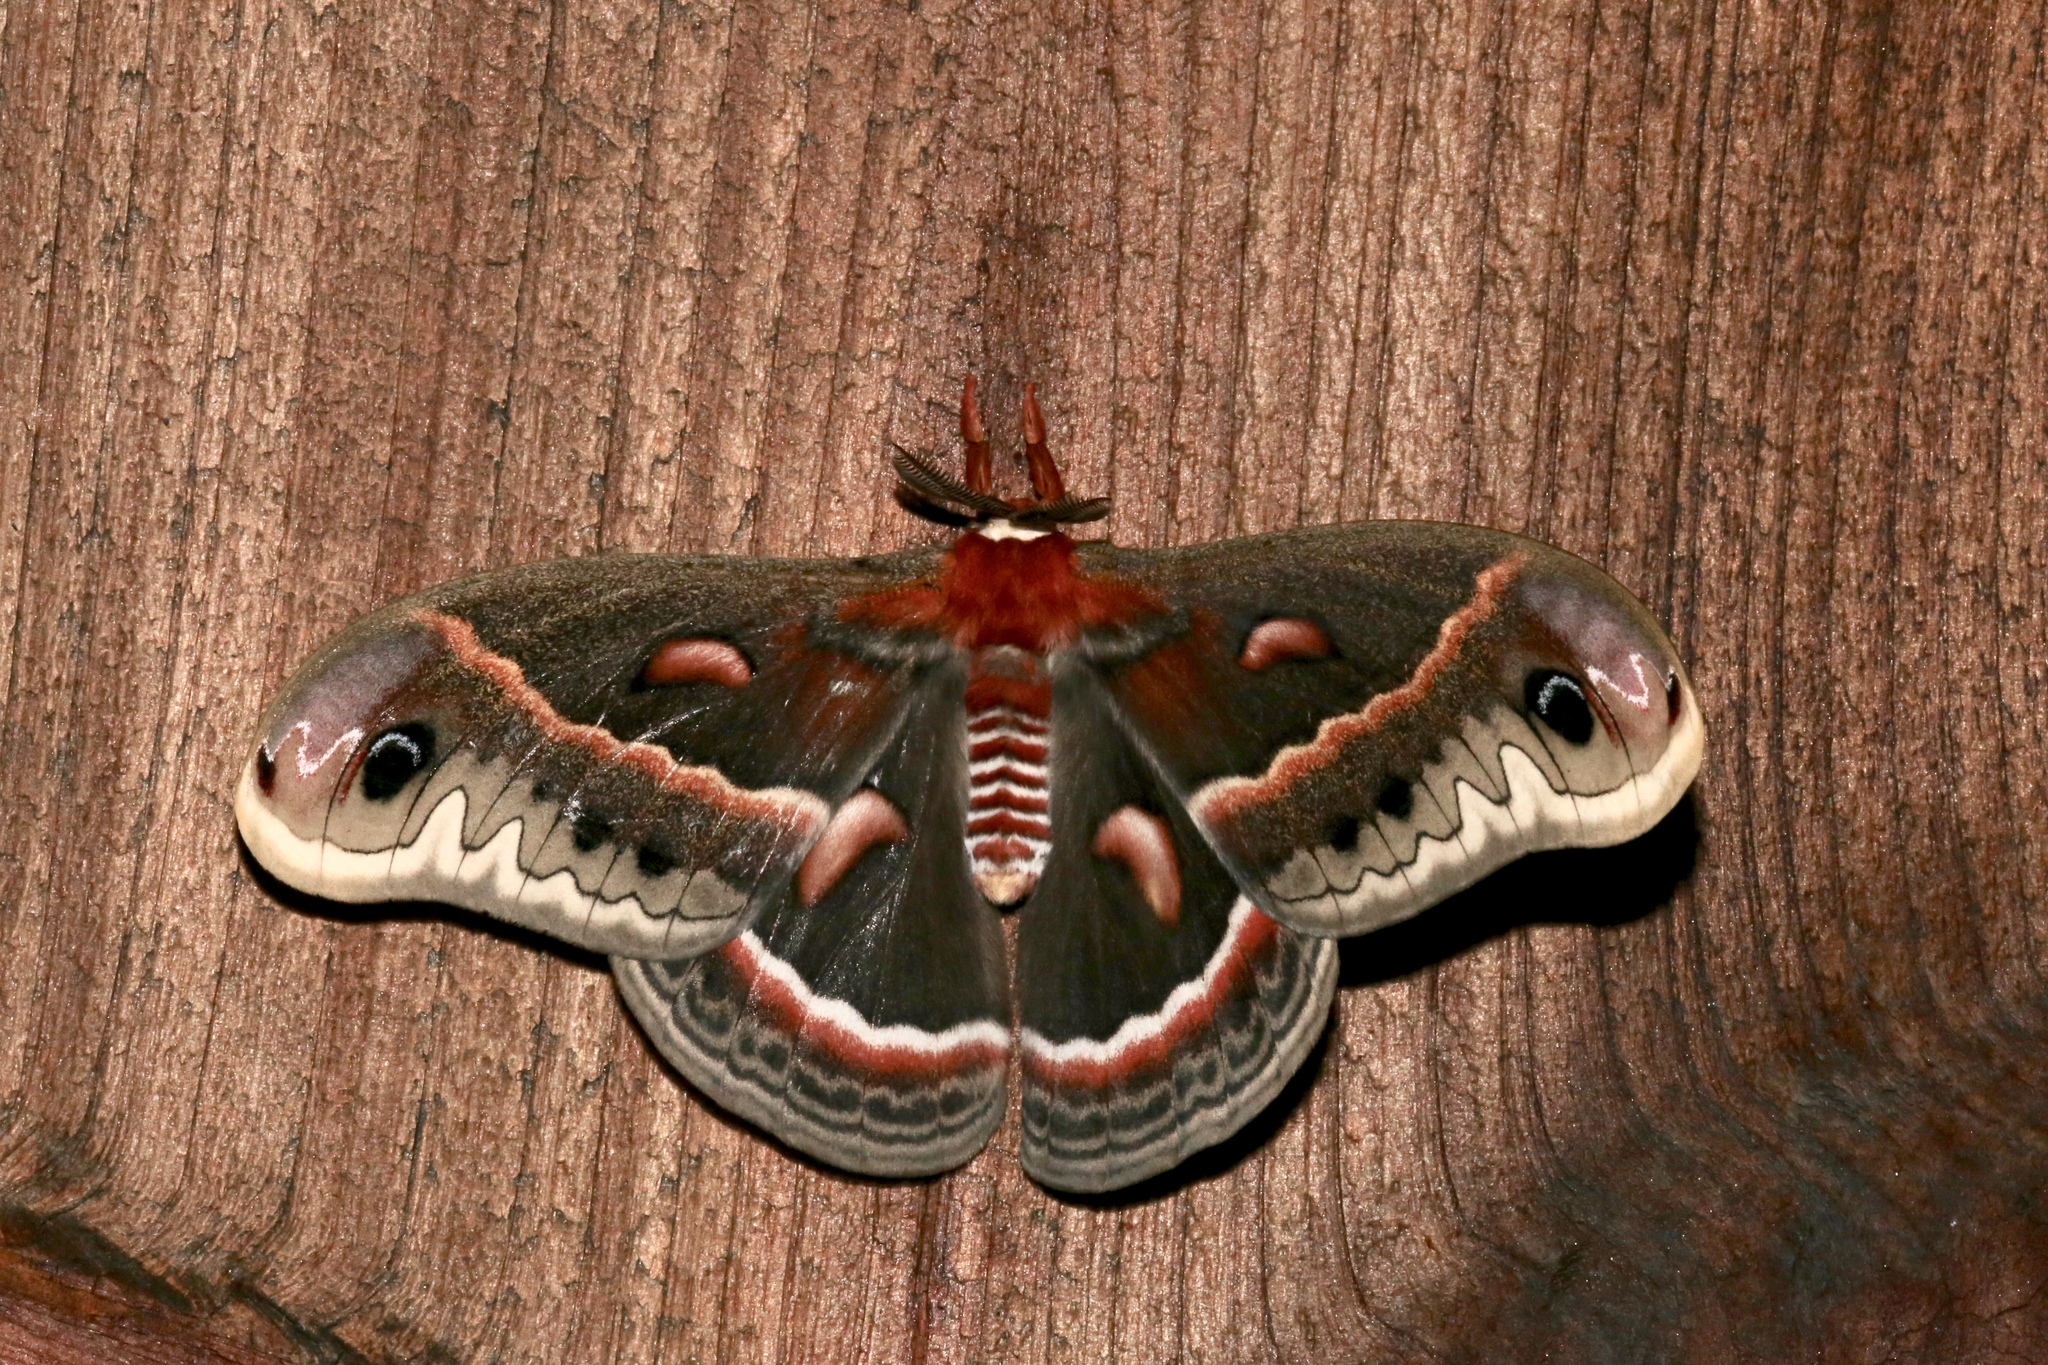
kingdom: Animalia
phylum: Arthropoda
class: Insecta
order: Lepidoptera
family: Saturniidae
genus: Hyalophora
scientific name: Hyalophora cecropia
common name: Cecropia silkmoth
